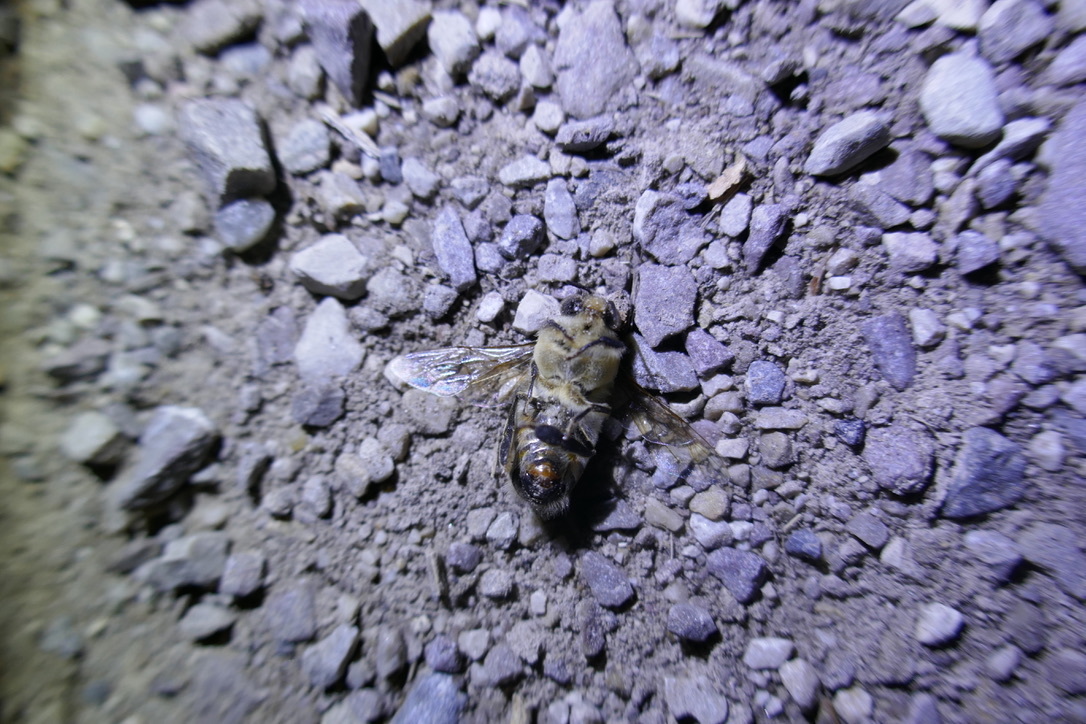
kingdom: Animalia
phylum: Arthropoda
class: Insecta
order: Hymenoptera
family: Apidae
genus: Apis
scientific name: Apis mellifera
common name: Honey bee
